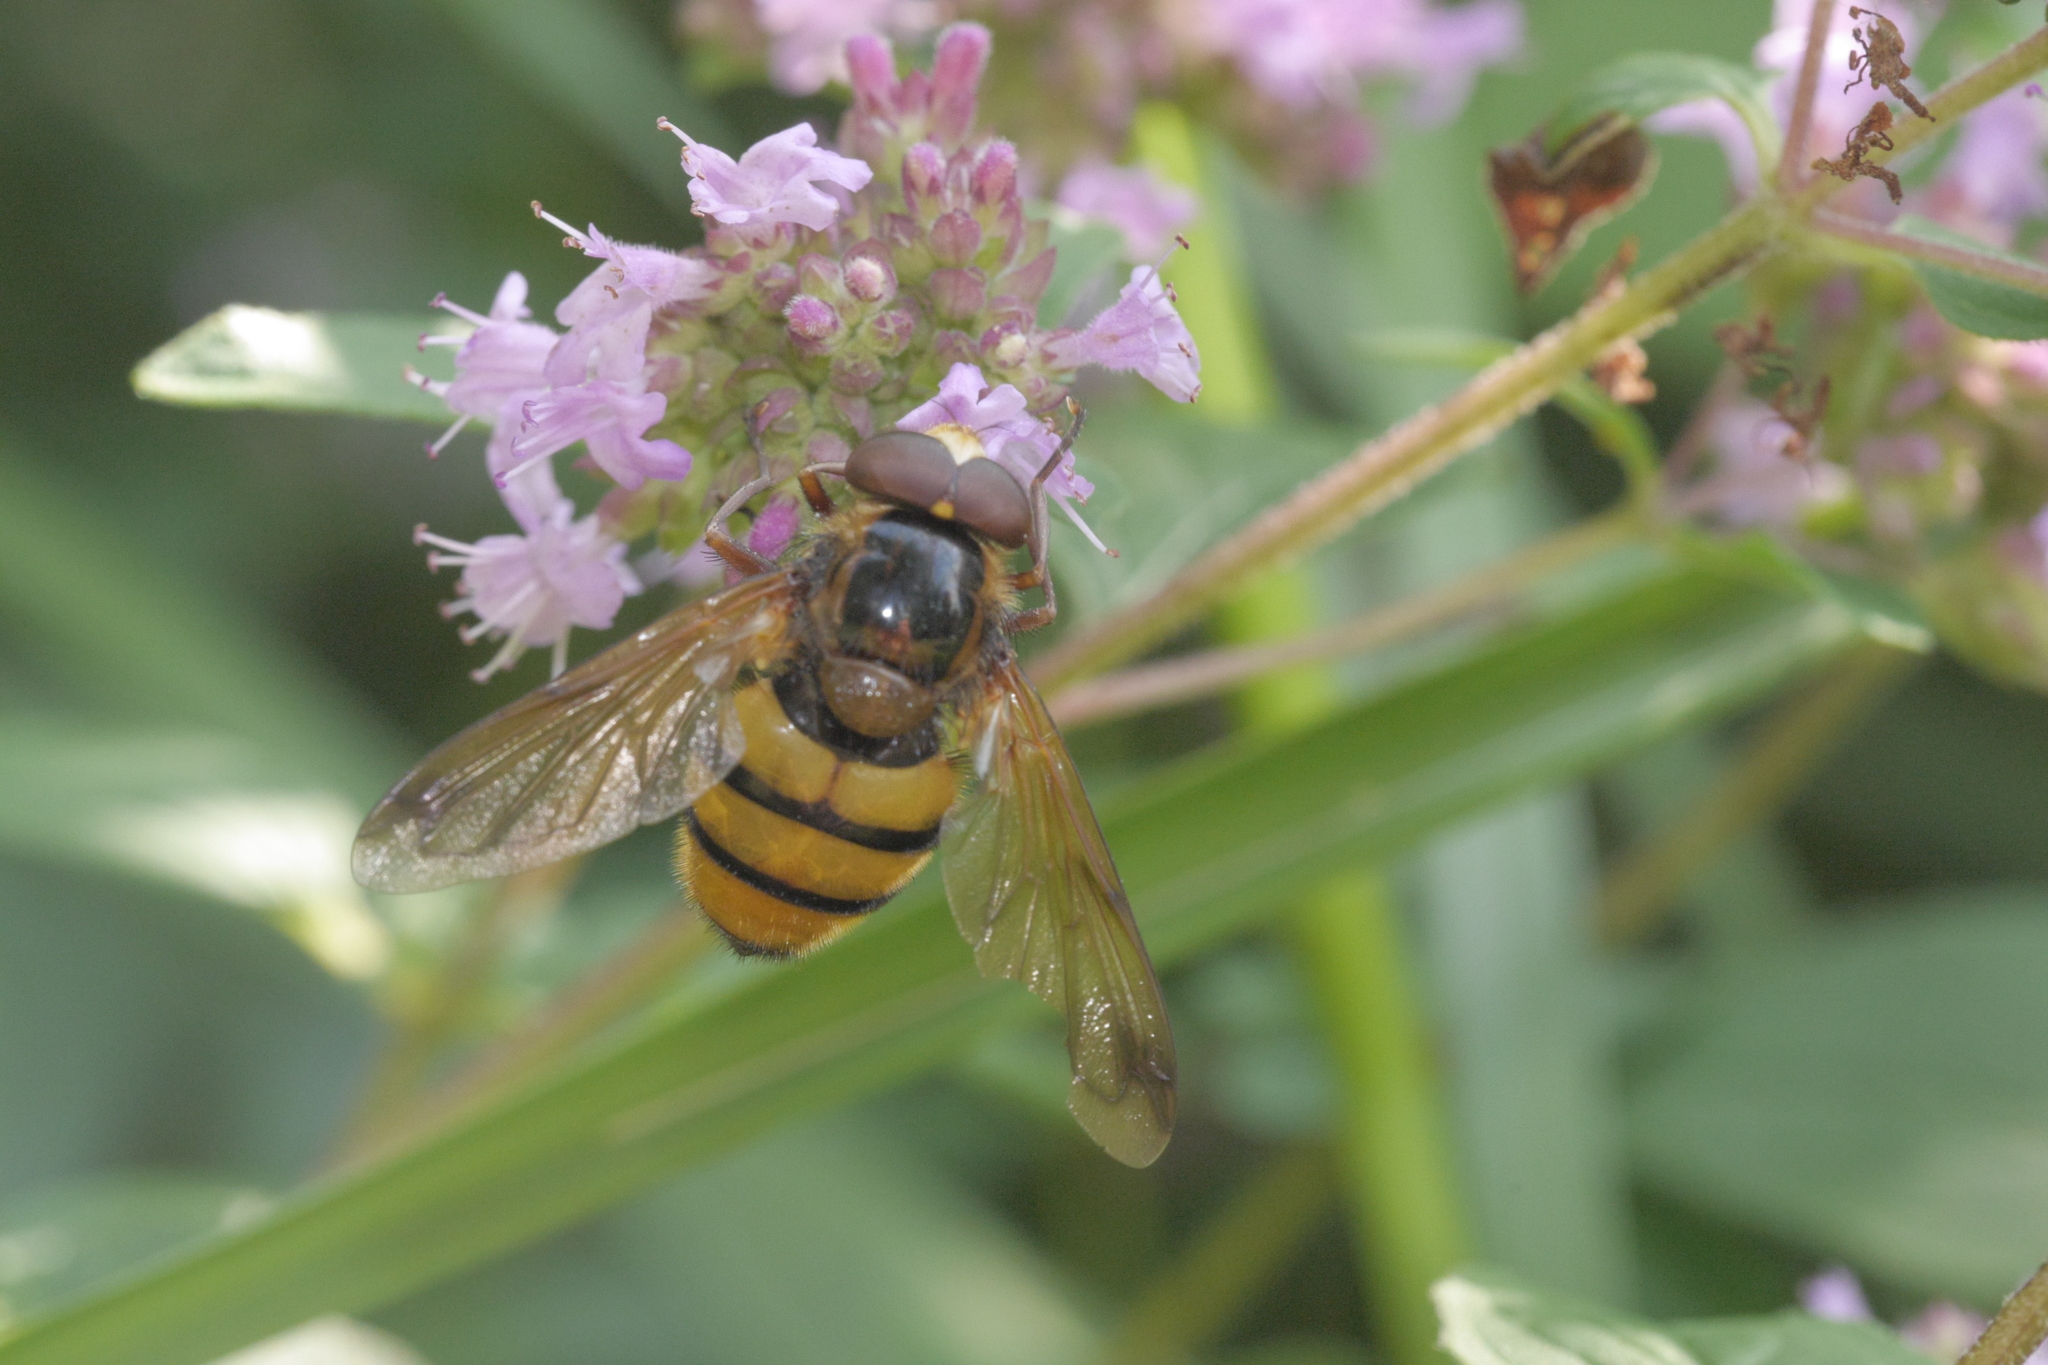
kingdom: Animalia
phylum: Arthropoda
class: Insecta
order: Diptera
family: Syrphidae
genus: Volucella
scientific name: Volucella inanis
